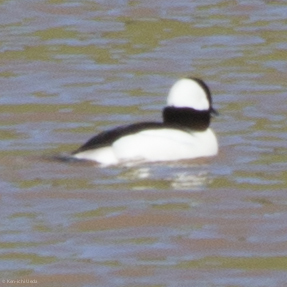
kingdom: Animalia
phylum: Chordata
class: Aves
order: Anseriformes
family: Anatidae
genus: Bucephala
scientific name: Bucephala albeola
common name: Bufflehead
